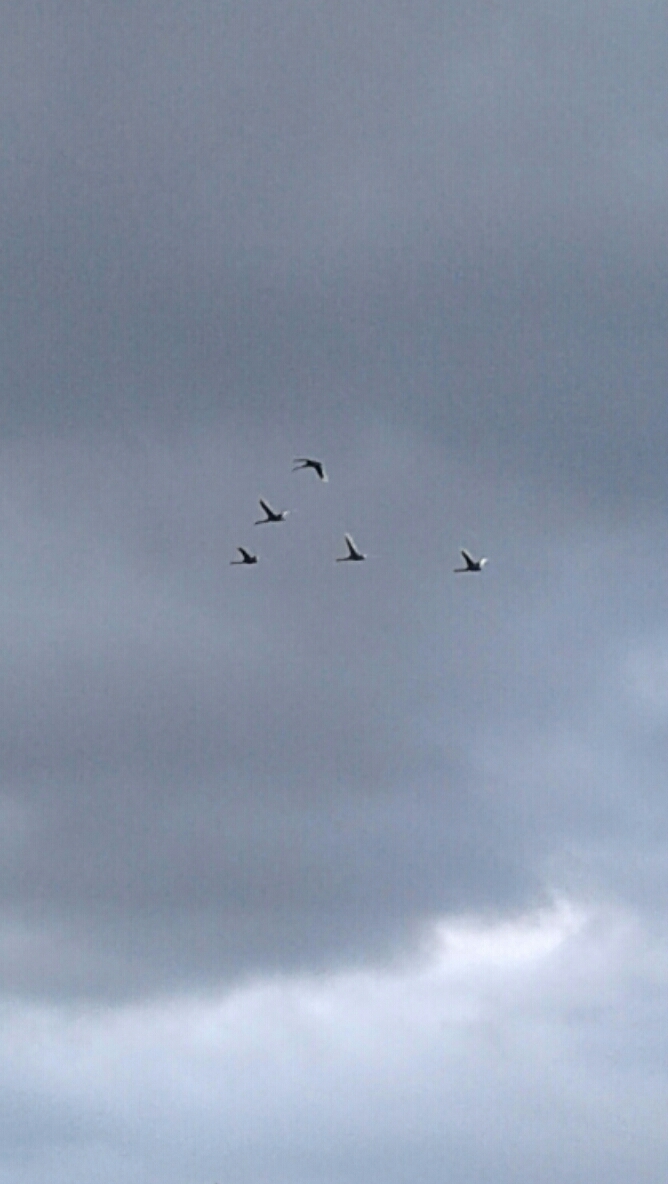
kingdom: Animalia
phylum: Chordata
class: Aves
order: Anseriformes
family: Anatidae
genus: Cygnus
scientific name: Cygnus atratus
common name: Black swan
